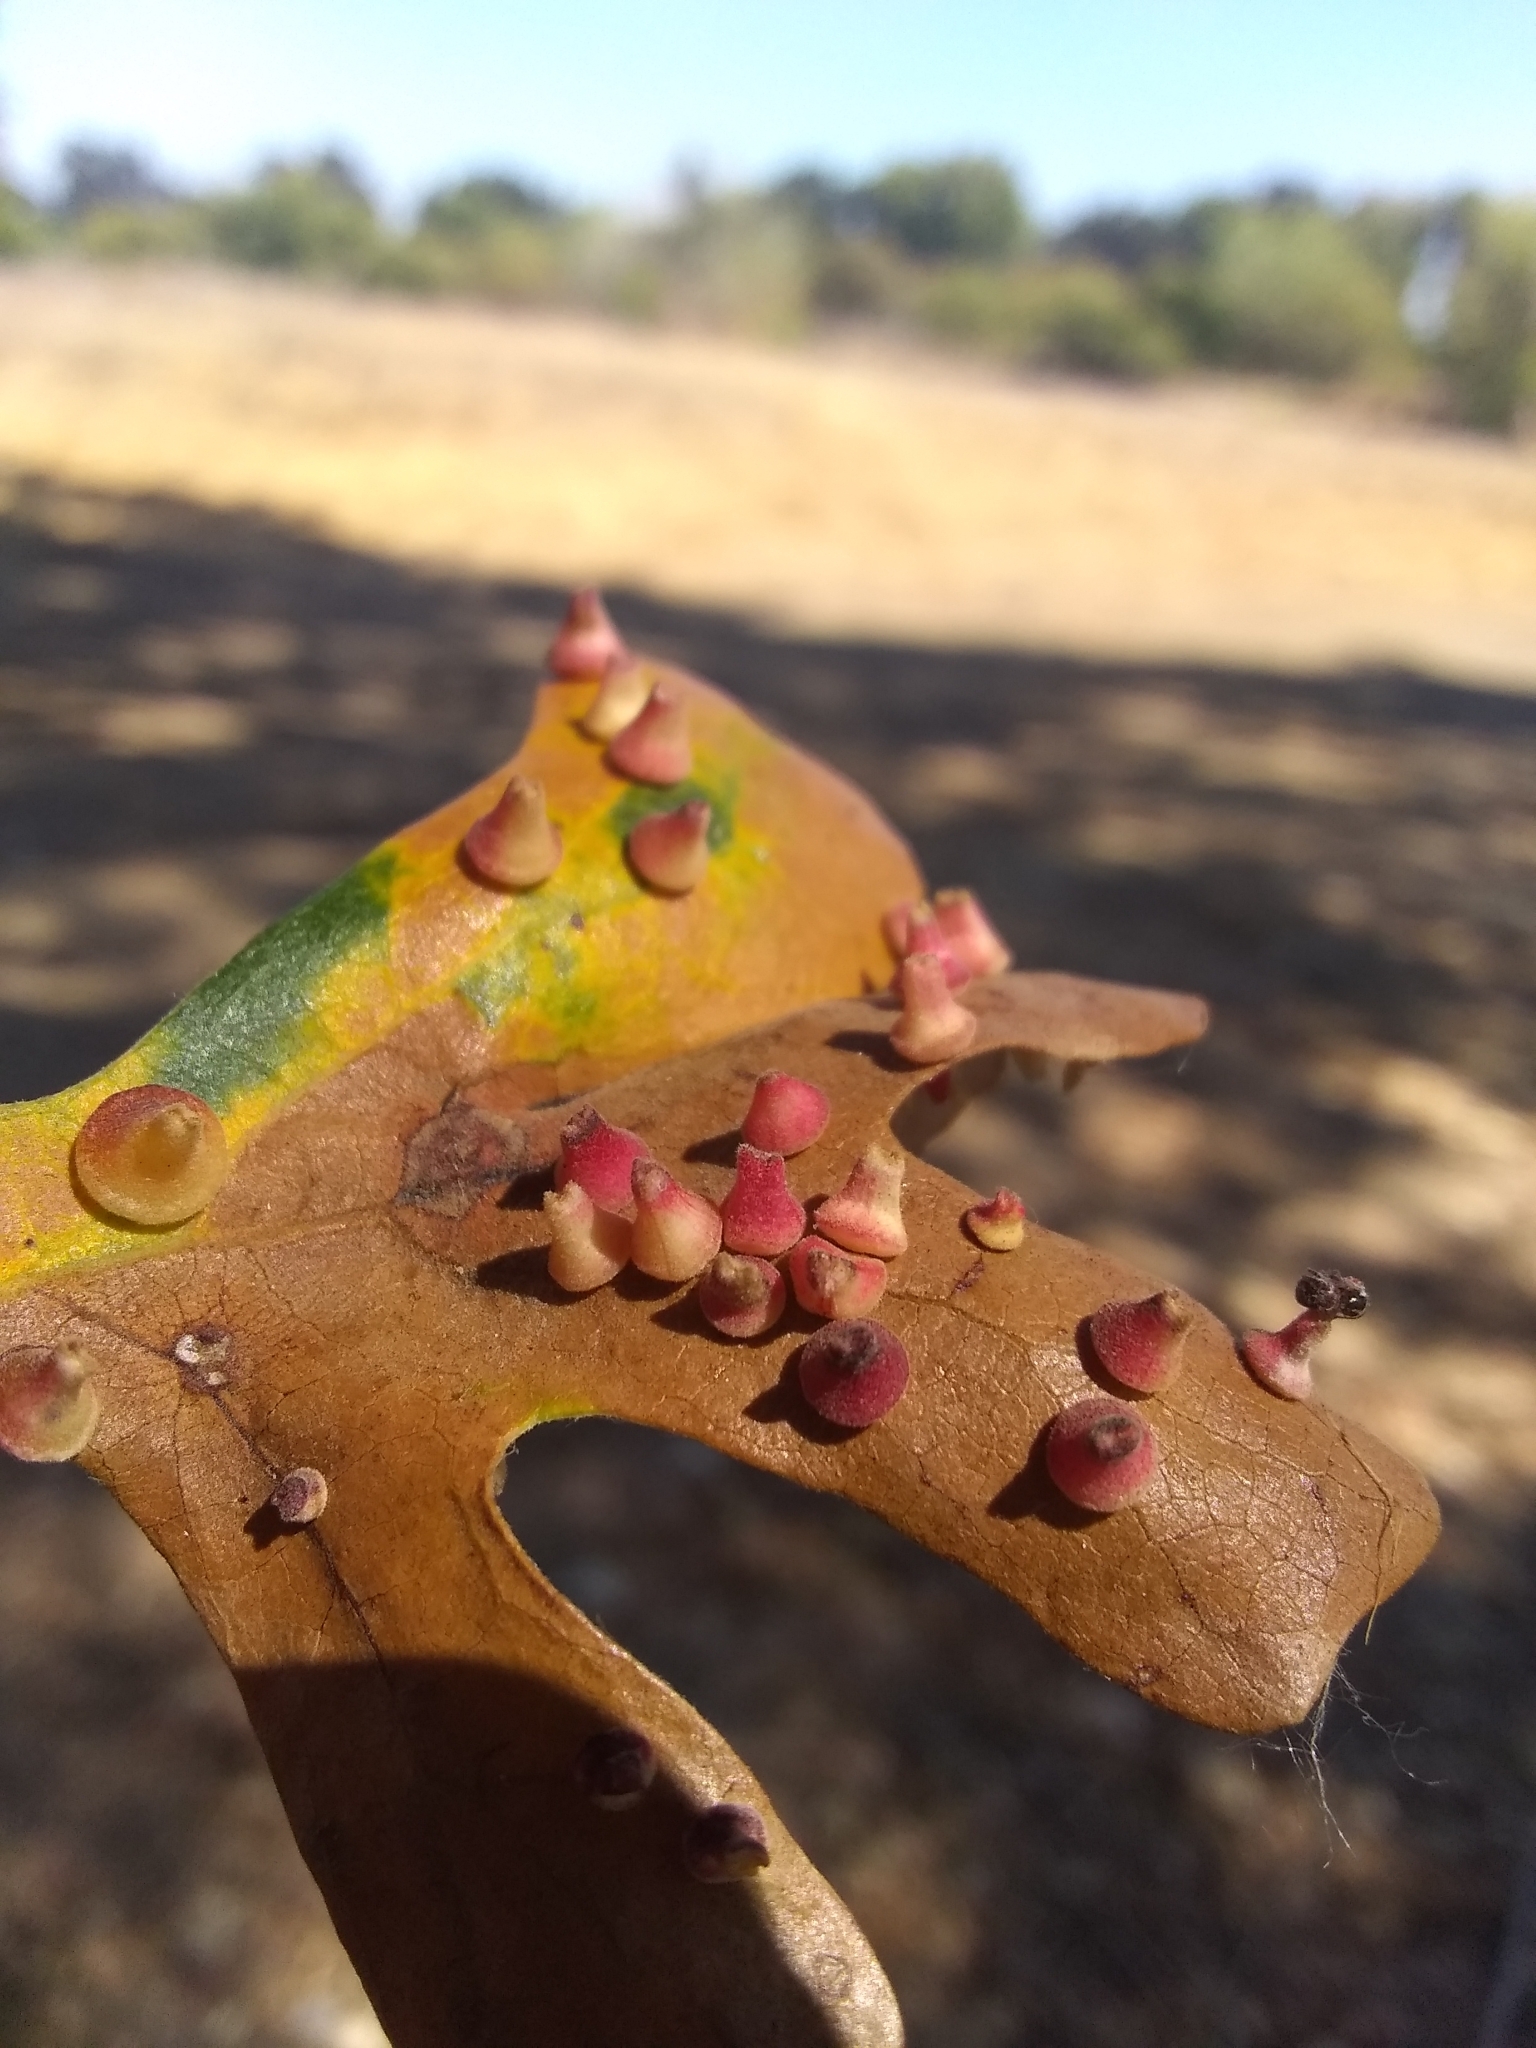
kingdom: Animalia
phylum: Arthropoda
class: Insecta
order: Hymenoptera
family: Cynipidae
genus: Andricus
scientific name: Andricus
